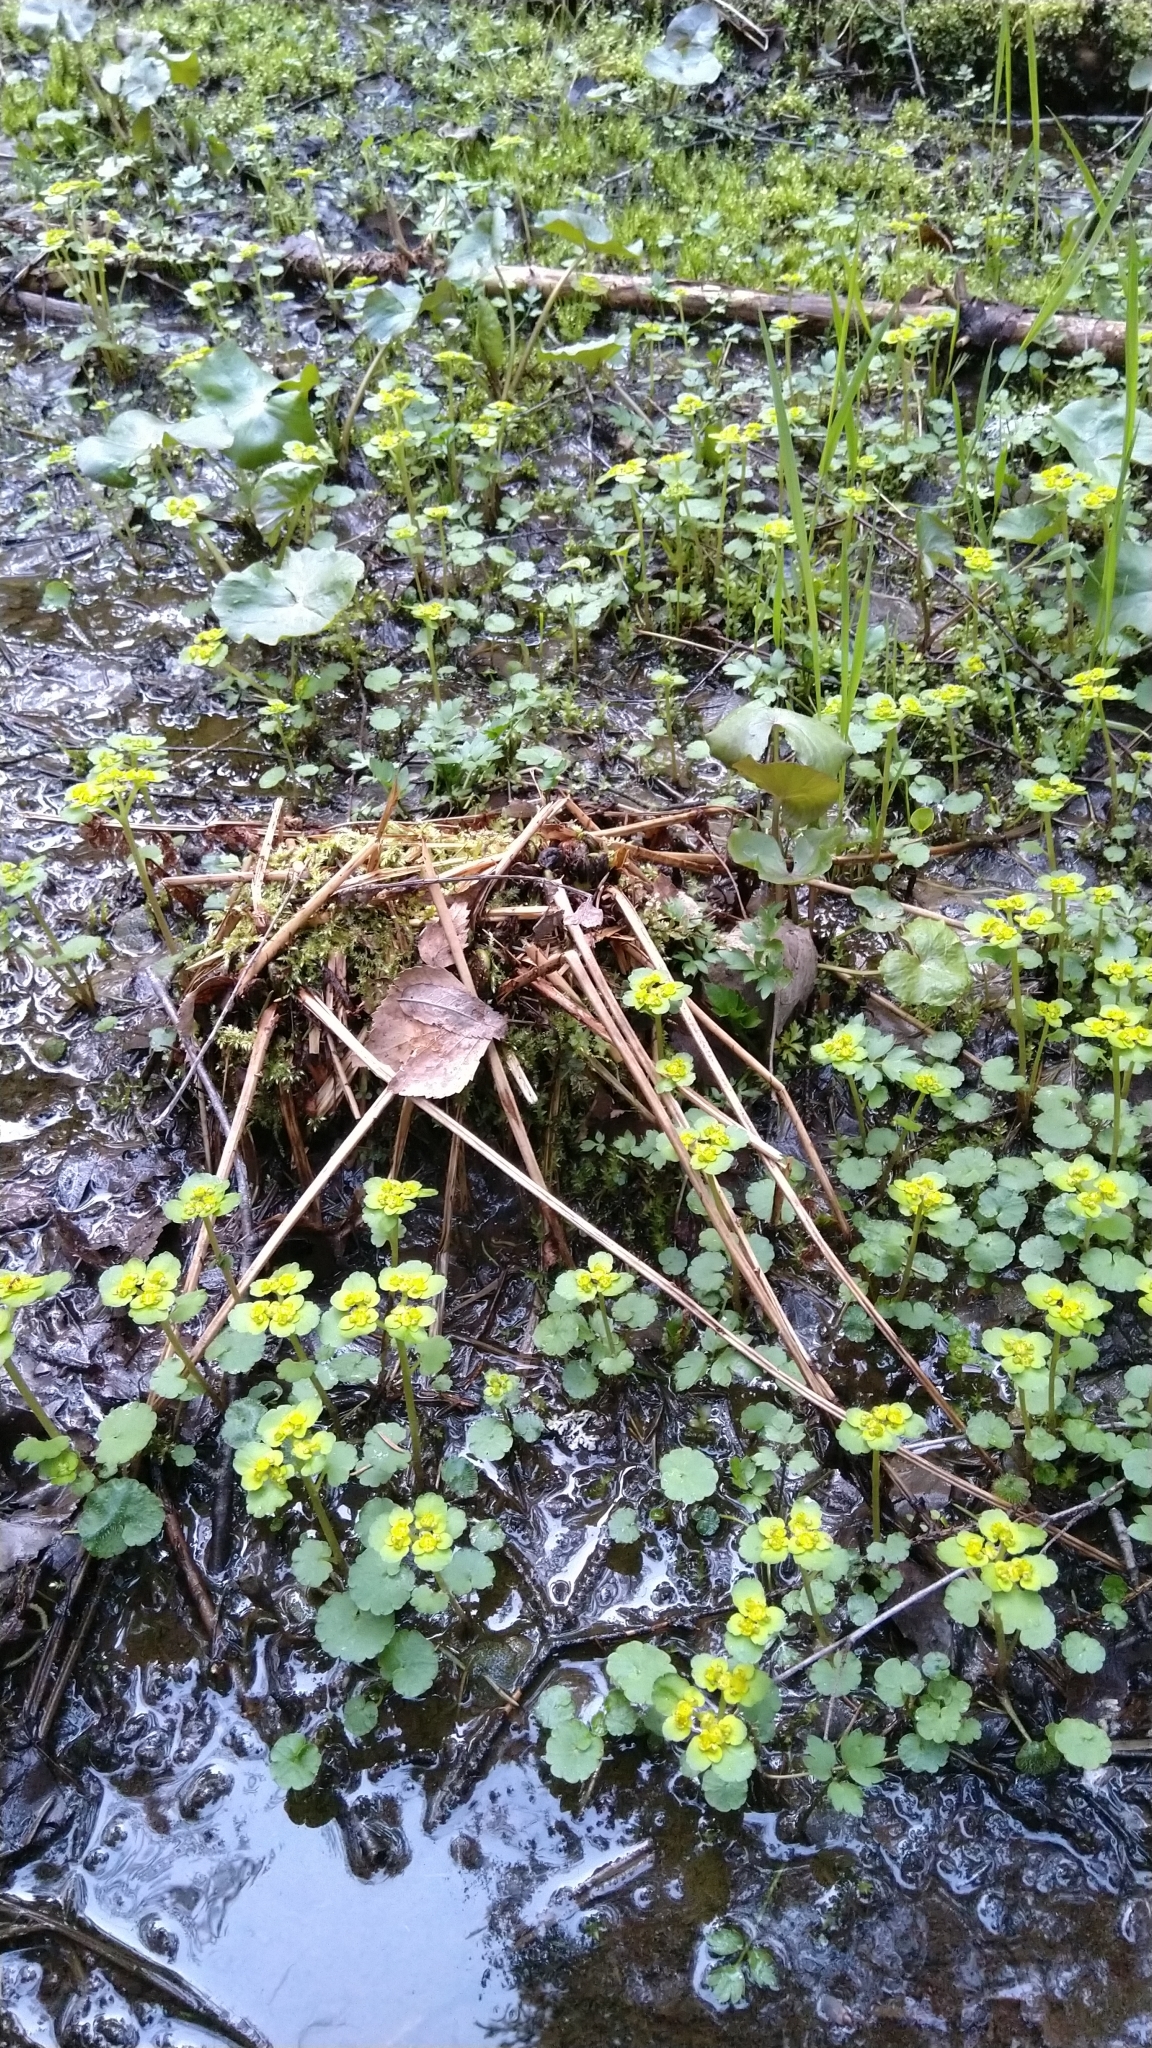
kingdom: Plantae
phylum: Tracheophyta
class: Magnoliopsida
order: Saxifragales
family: Saxifragaceae
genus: Chrysosplenium
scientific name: Chrysosplenium alternifolium
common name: Alternate-leaved golden-saxifrage
